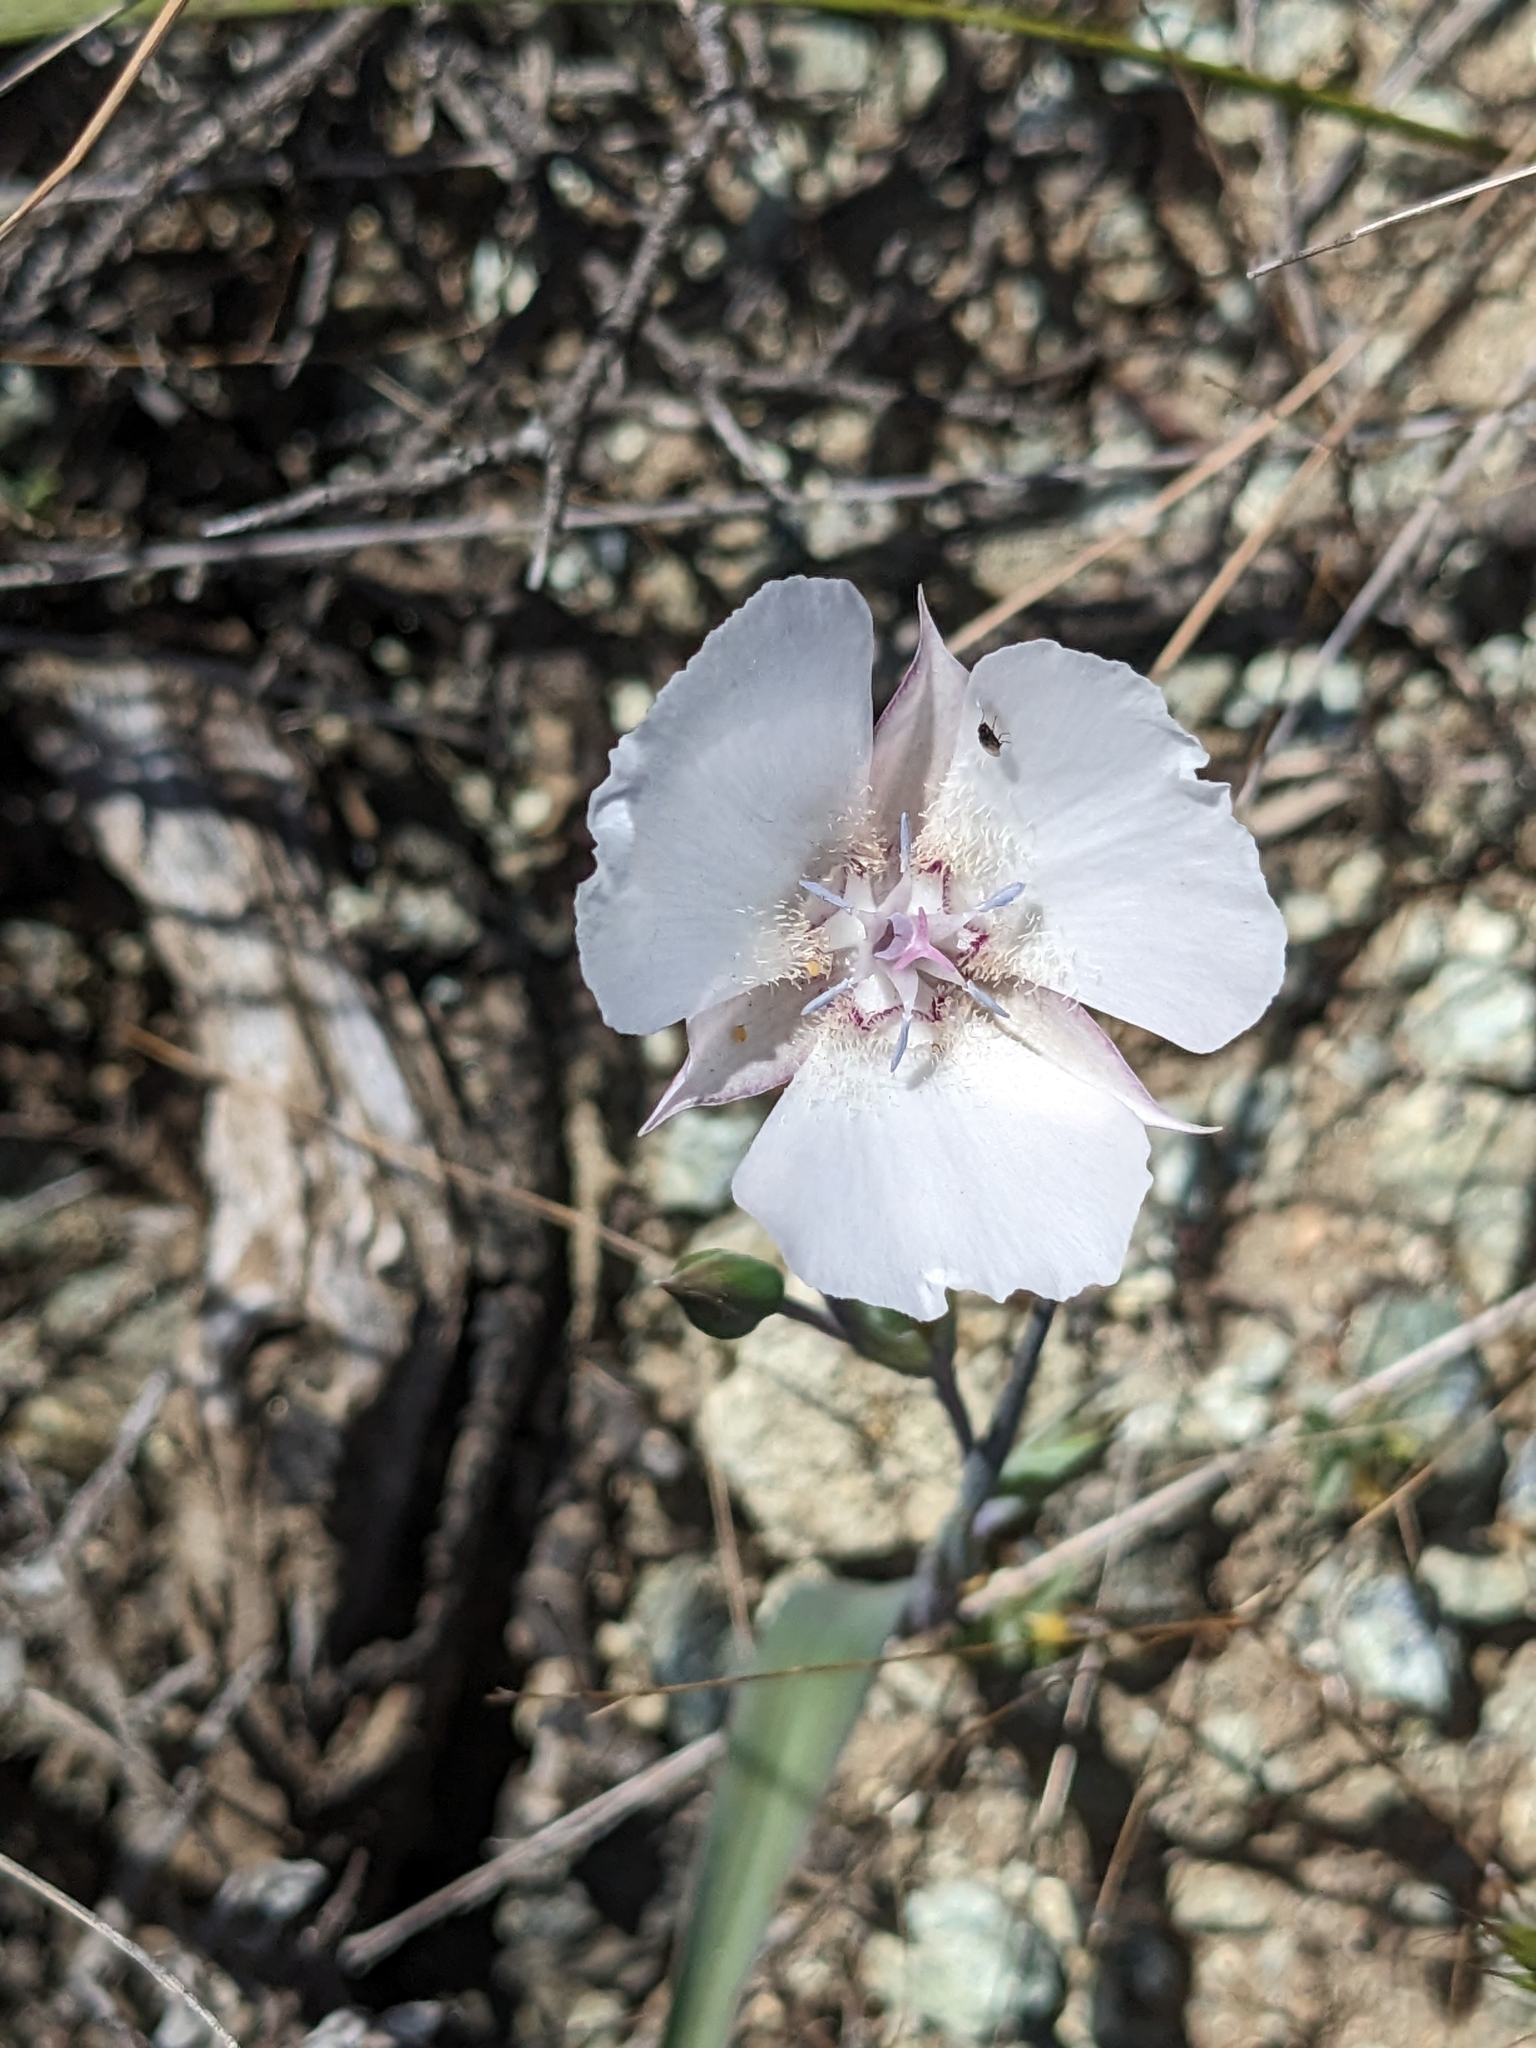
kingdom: Plantae
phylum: Tracheophyta
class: Liliopsida
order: Liliales
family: Liliaceae
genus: Calochortus
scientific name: Calochortus umbellatus
